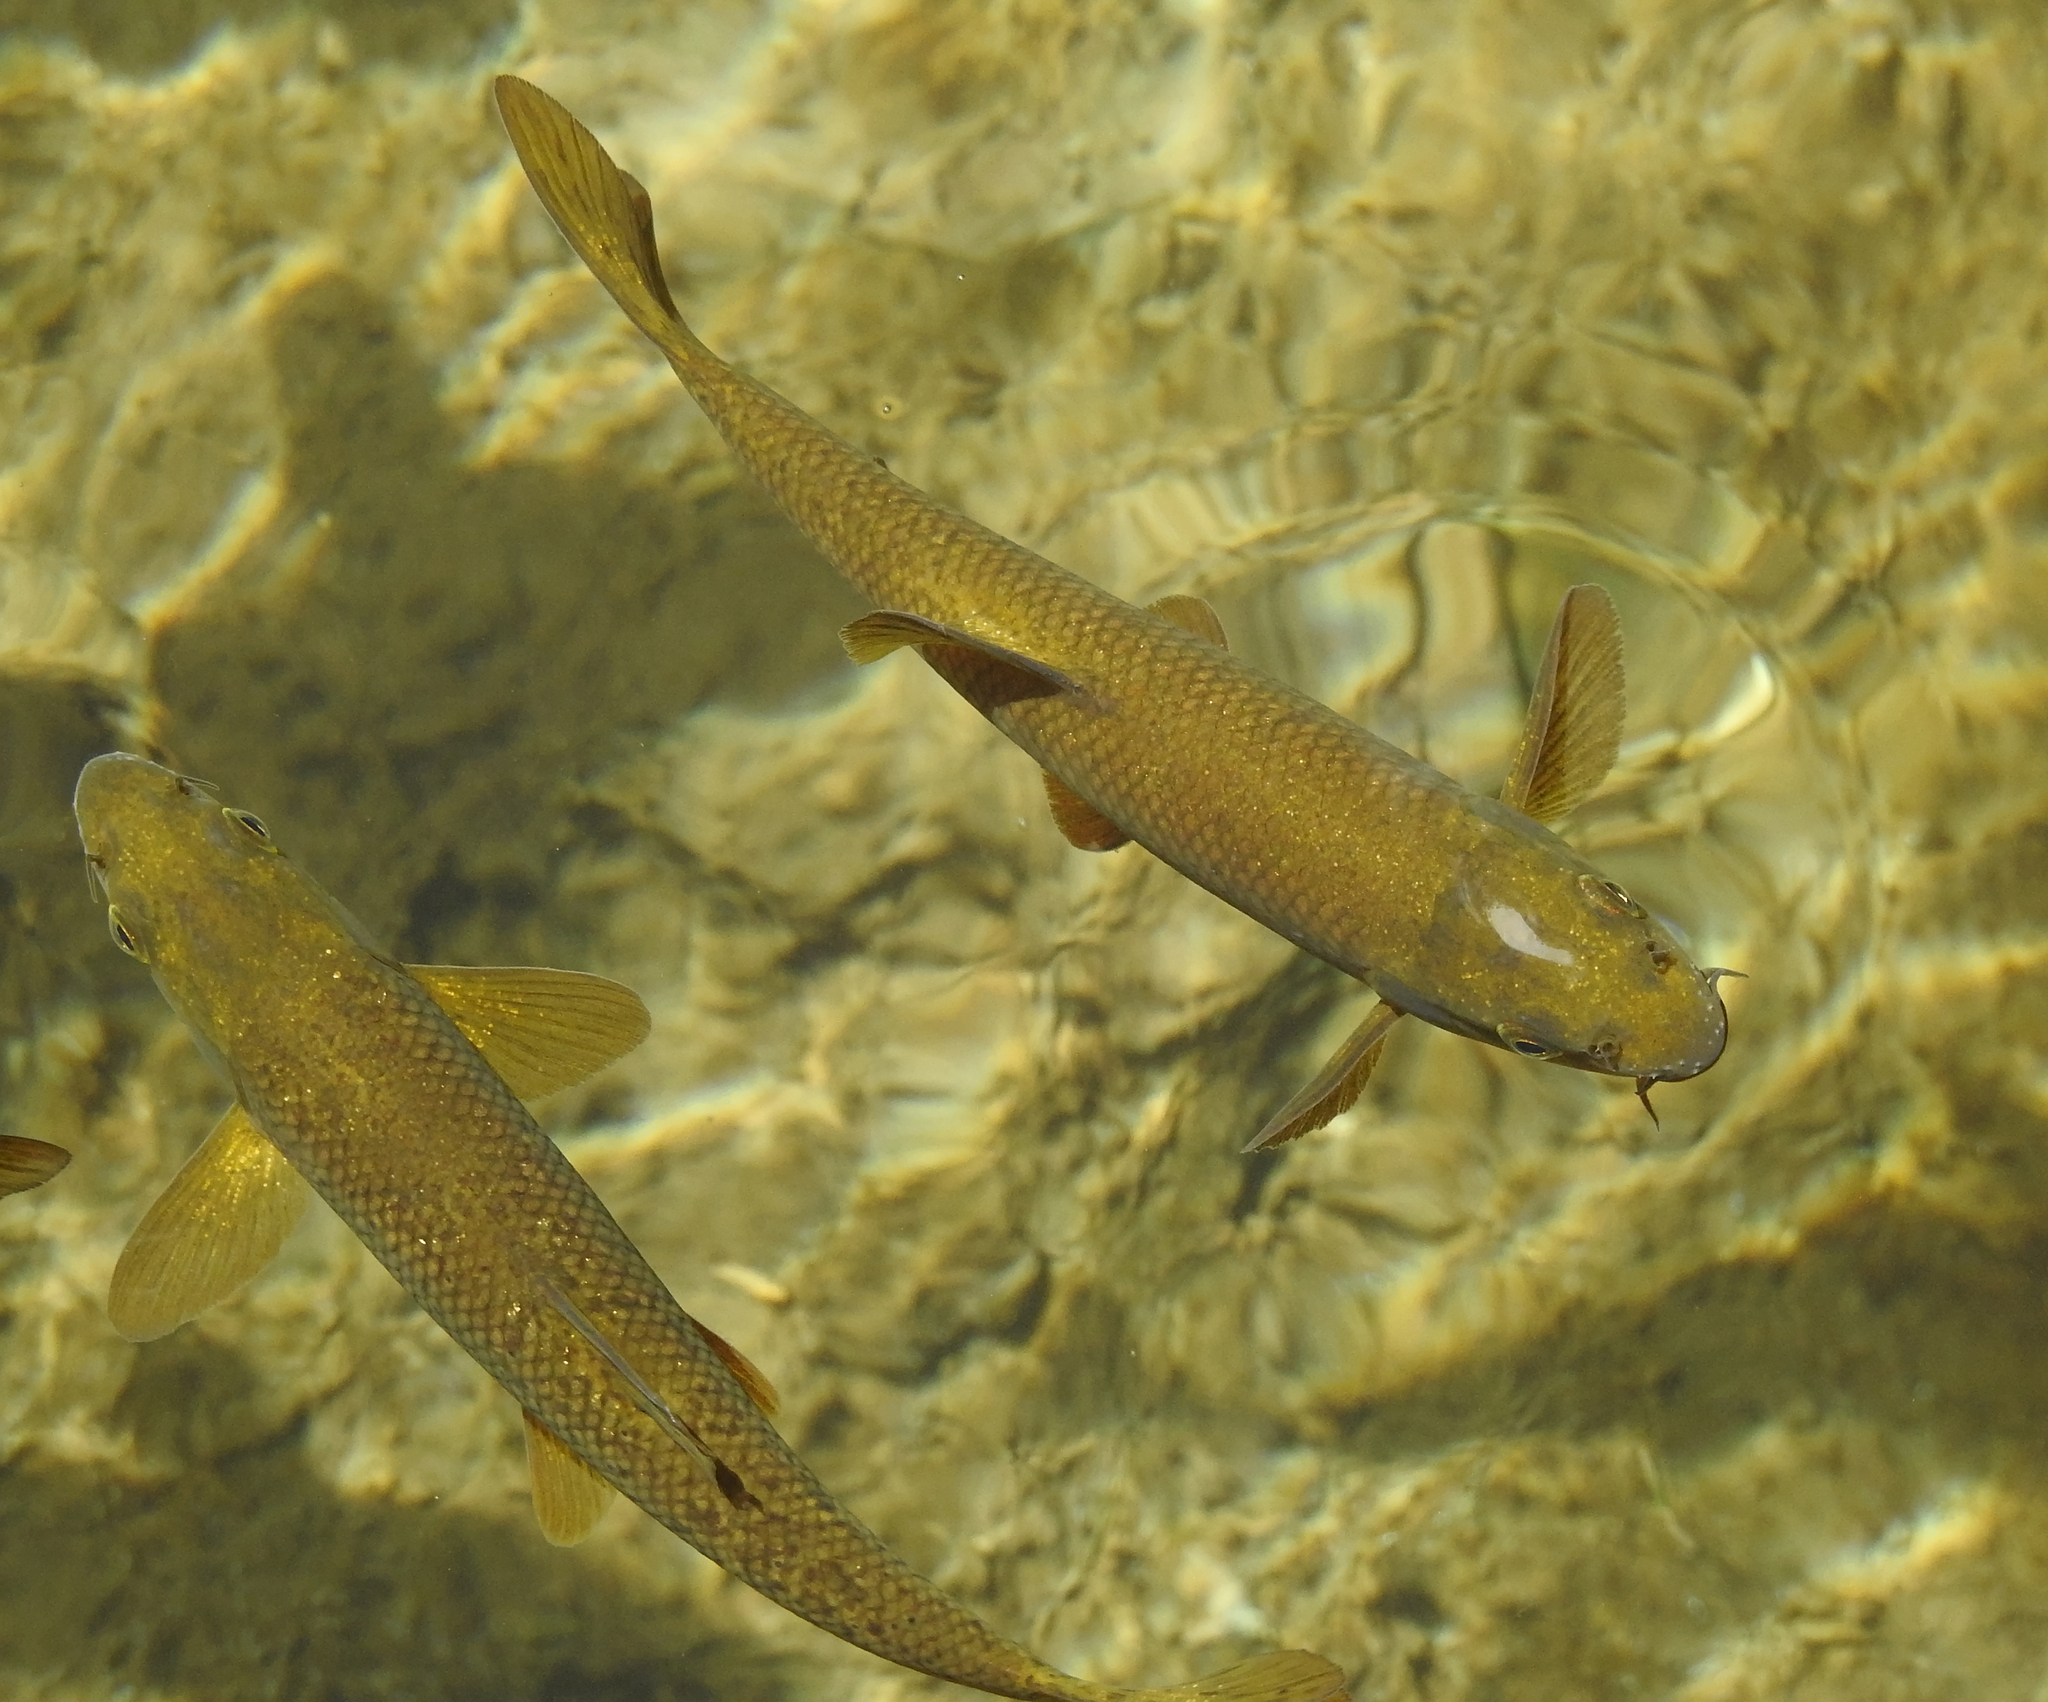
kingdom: Animalia
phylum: Chordata
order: Cypriniformes
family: Cyprinidae
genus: Barbus
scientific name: Barbus barbus
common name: Barbel
